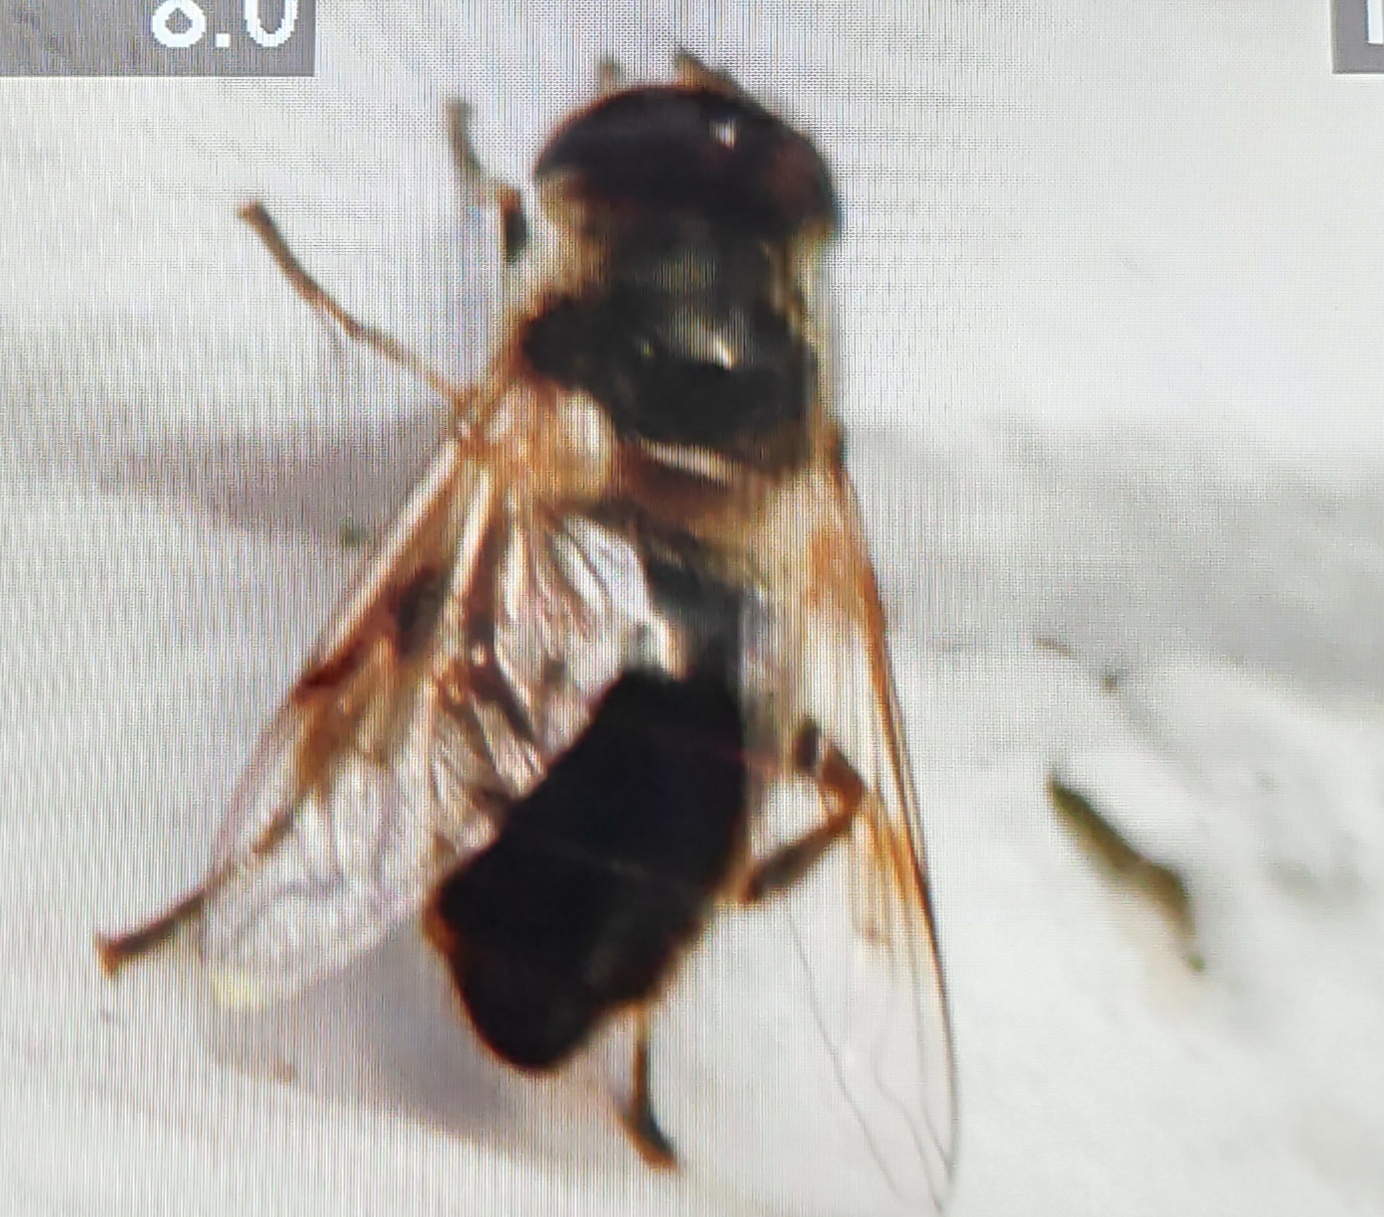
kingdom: Animalia
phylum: Arthropoda
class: Insecta
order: Diptera
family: Syrphidae
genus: Eristalis
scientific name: Eristalis tenax
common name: Drone fly
